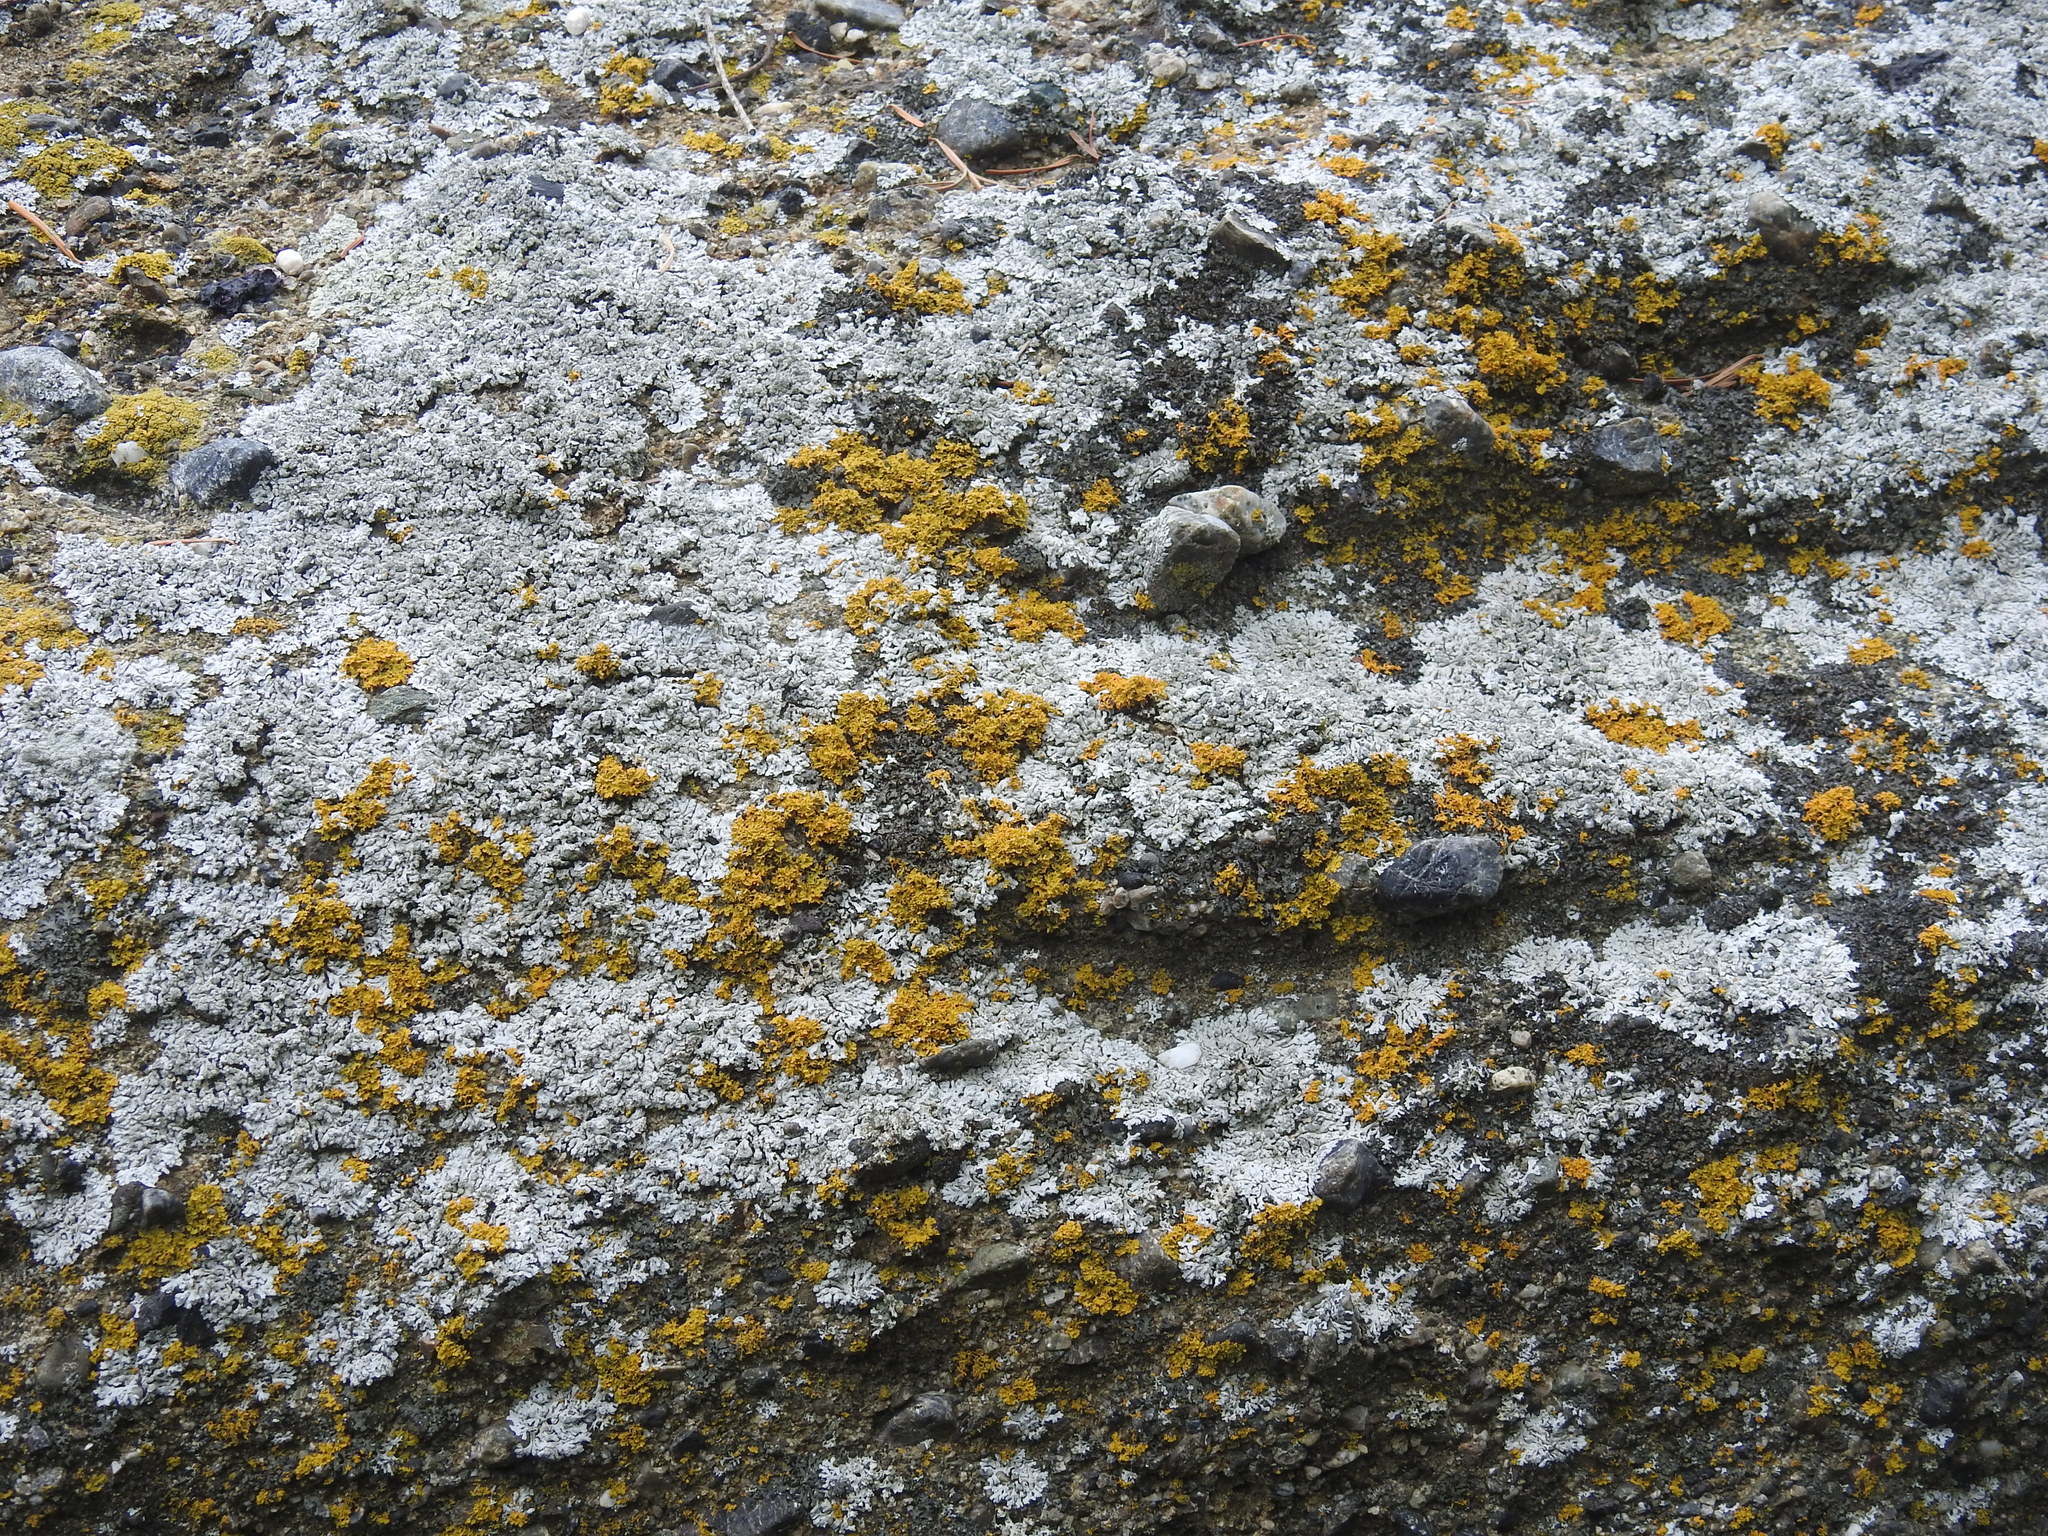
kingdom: Fungi
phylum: Ascomycota
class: Lecanoromycetes
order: Teloschistales
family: Teloschistaceae
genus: Polycauliona
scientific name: Polycauliona candelaria
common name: Shrubby sunburst lichen
